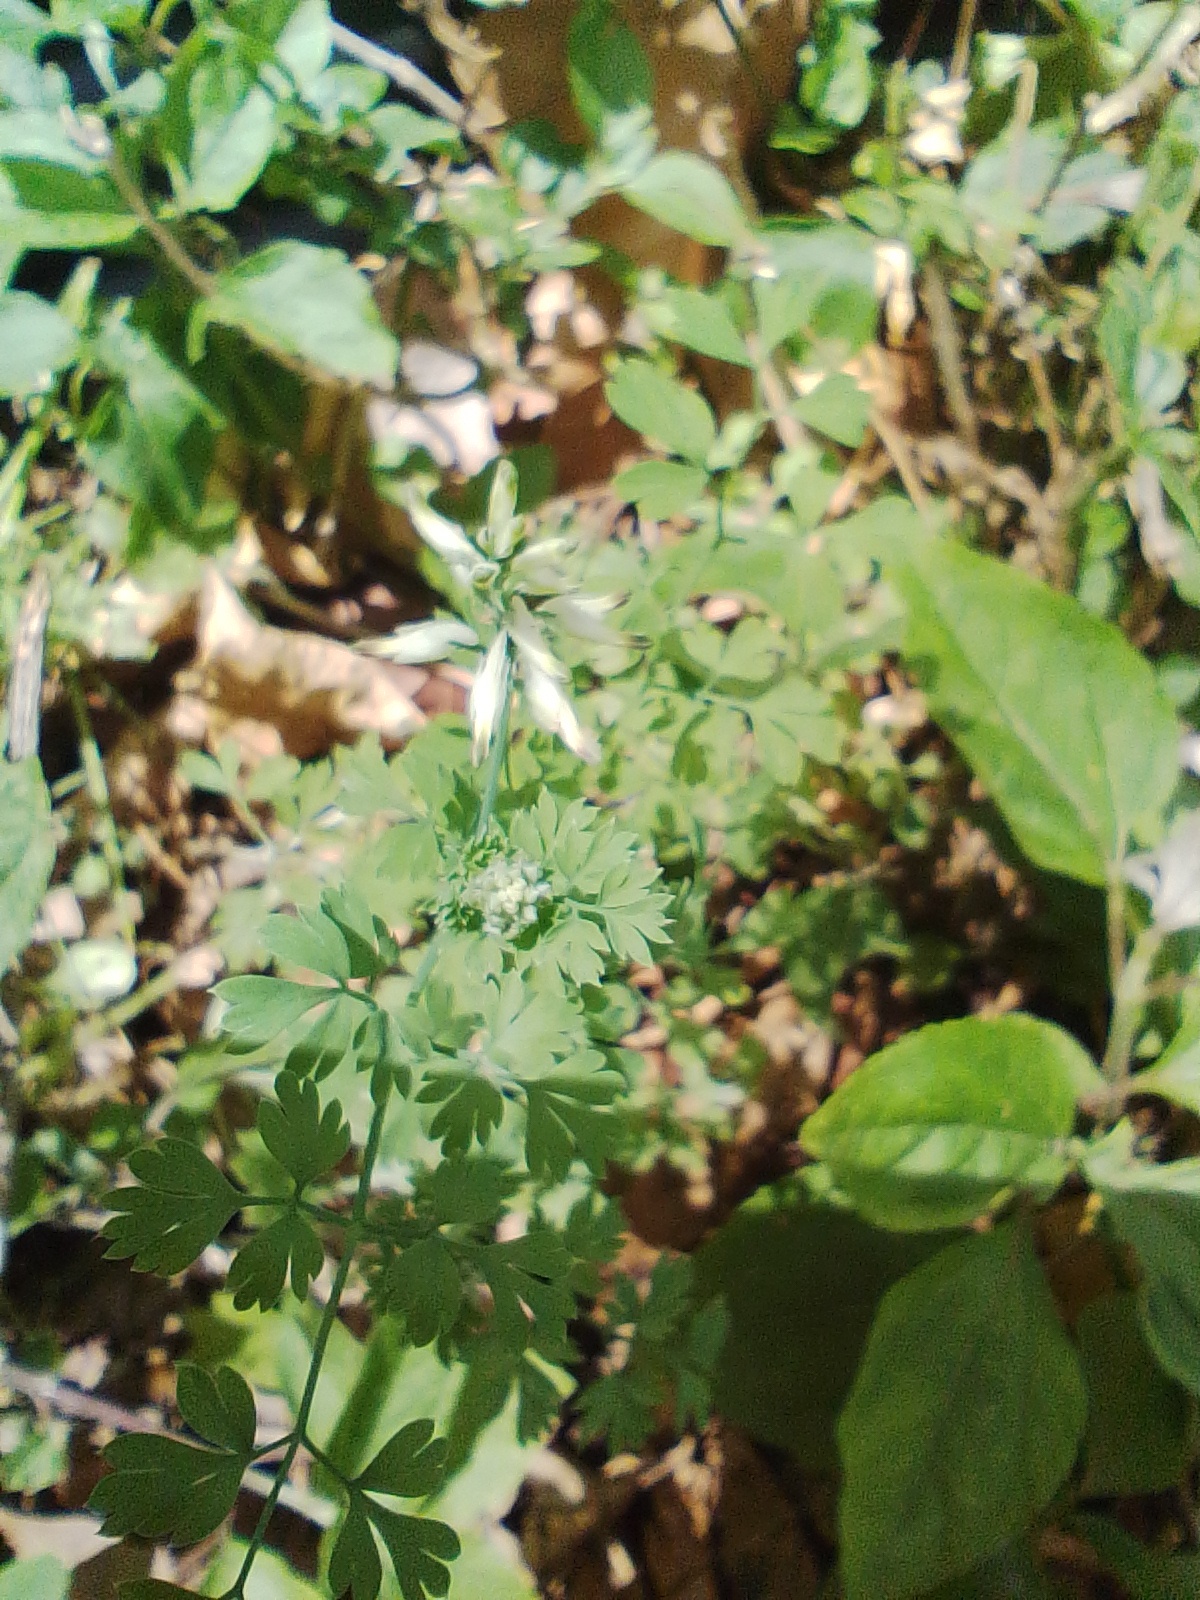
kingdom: Plantae
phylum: Tracheophyta
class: Magnoliopsida
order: Ranunculales
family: Papaveraceae
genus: Fumaria
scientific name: Fumaria capreolata
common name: White ramping-fumitory
